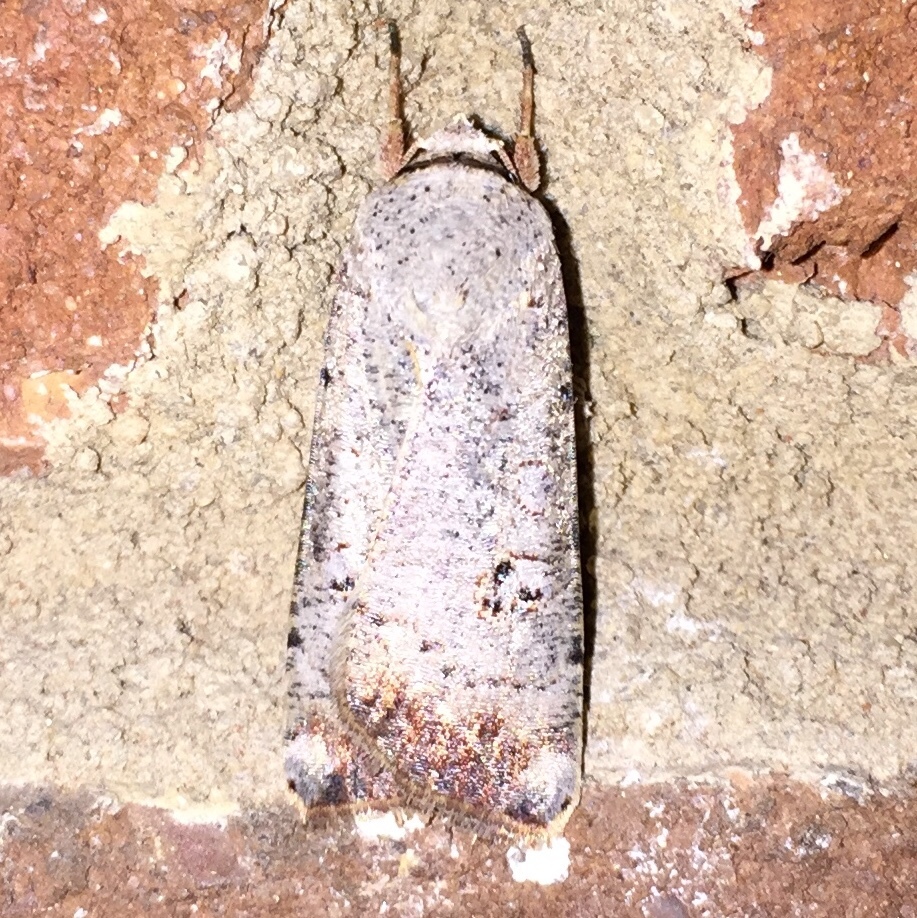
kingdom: Animalia
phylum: Arthropoda
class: Insecta
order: Lepidoptera
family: Noctuidae
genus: Anicla
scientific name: Anicla infecta
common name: Green cutworm
